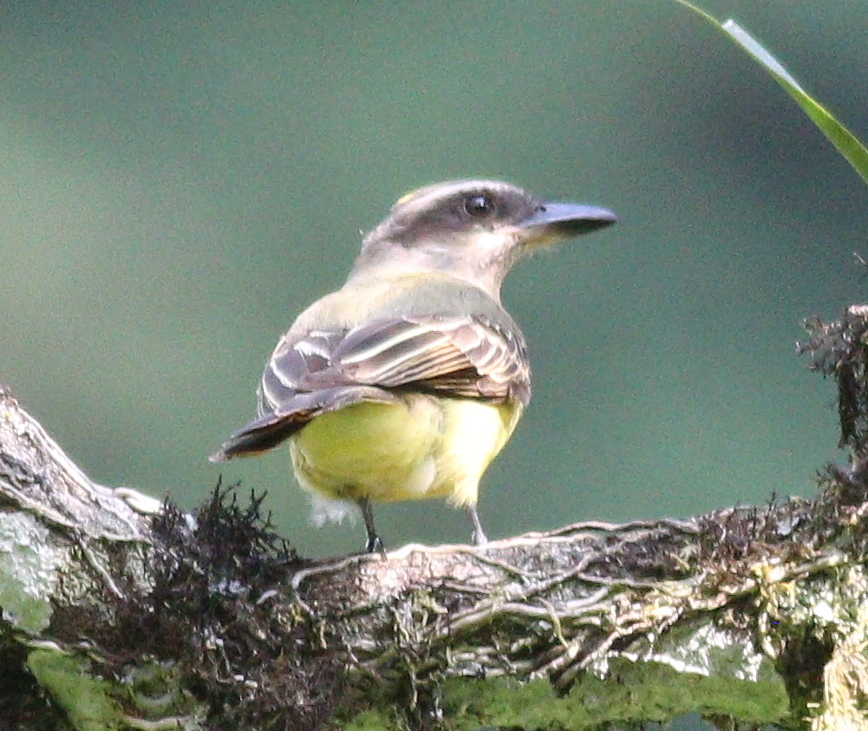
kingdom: Animalia
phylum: Chordata
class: Aves
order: Passeriformes
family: Tyrannidae
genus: Myiodynastes
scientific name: Myiodynastes chrysocephalus
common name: Golden-crowned flycatcher
